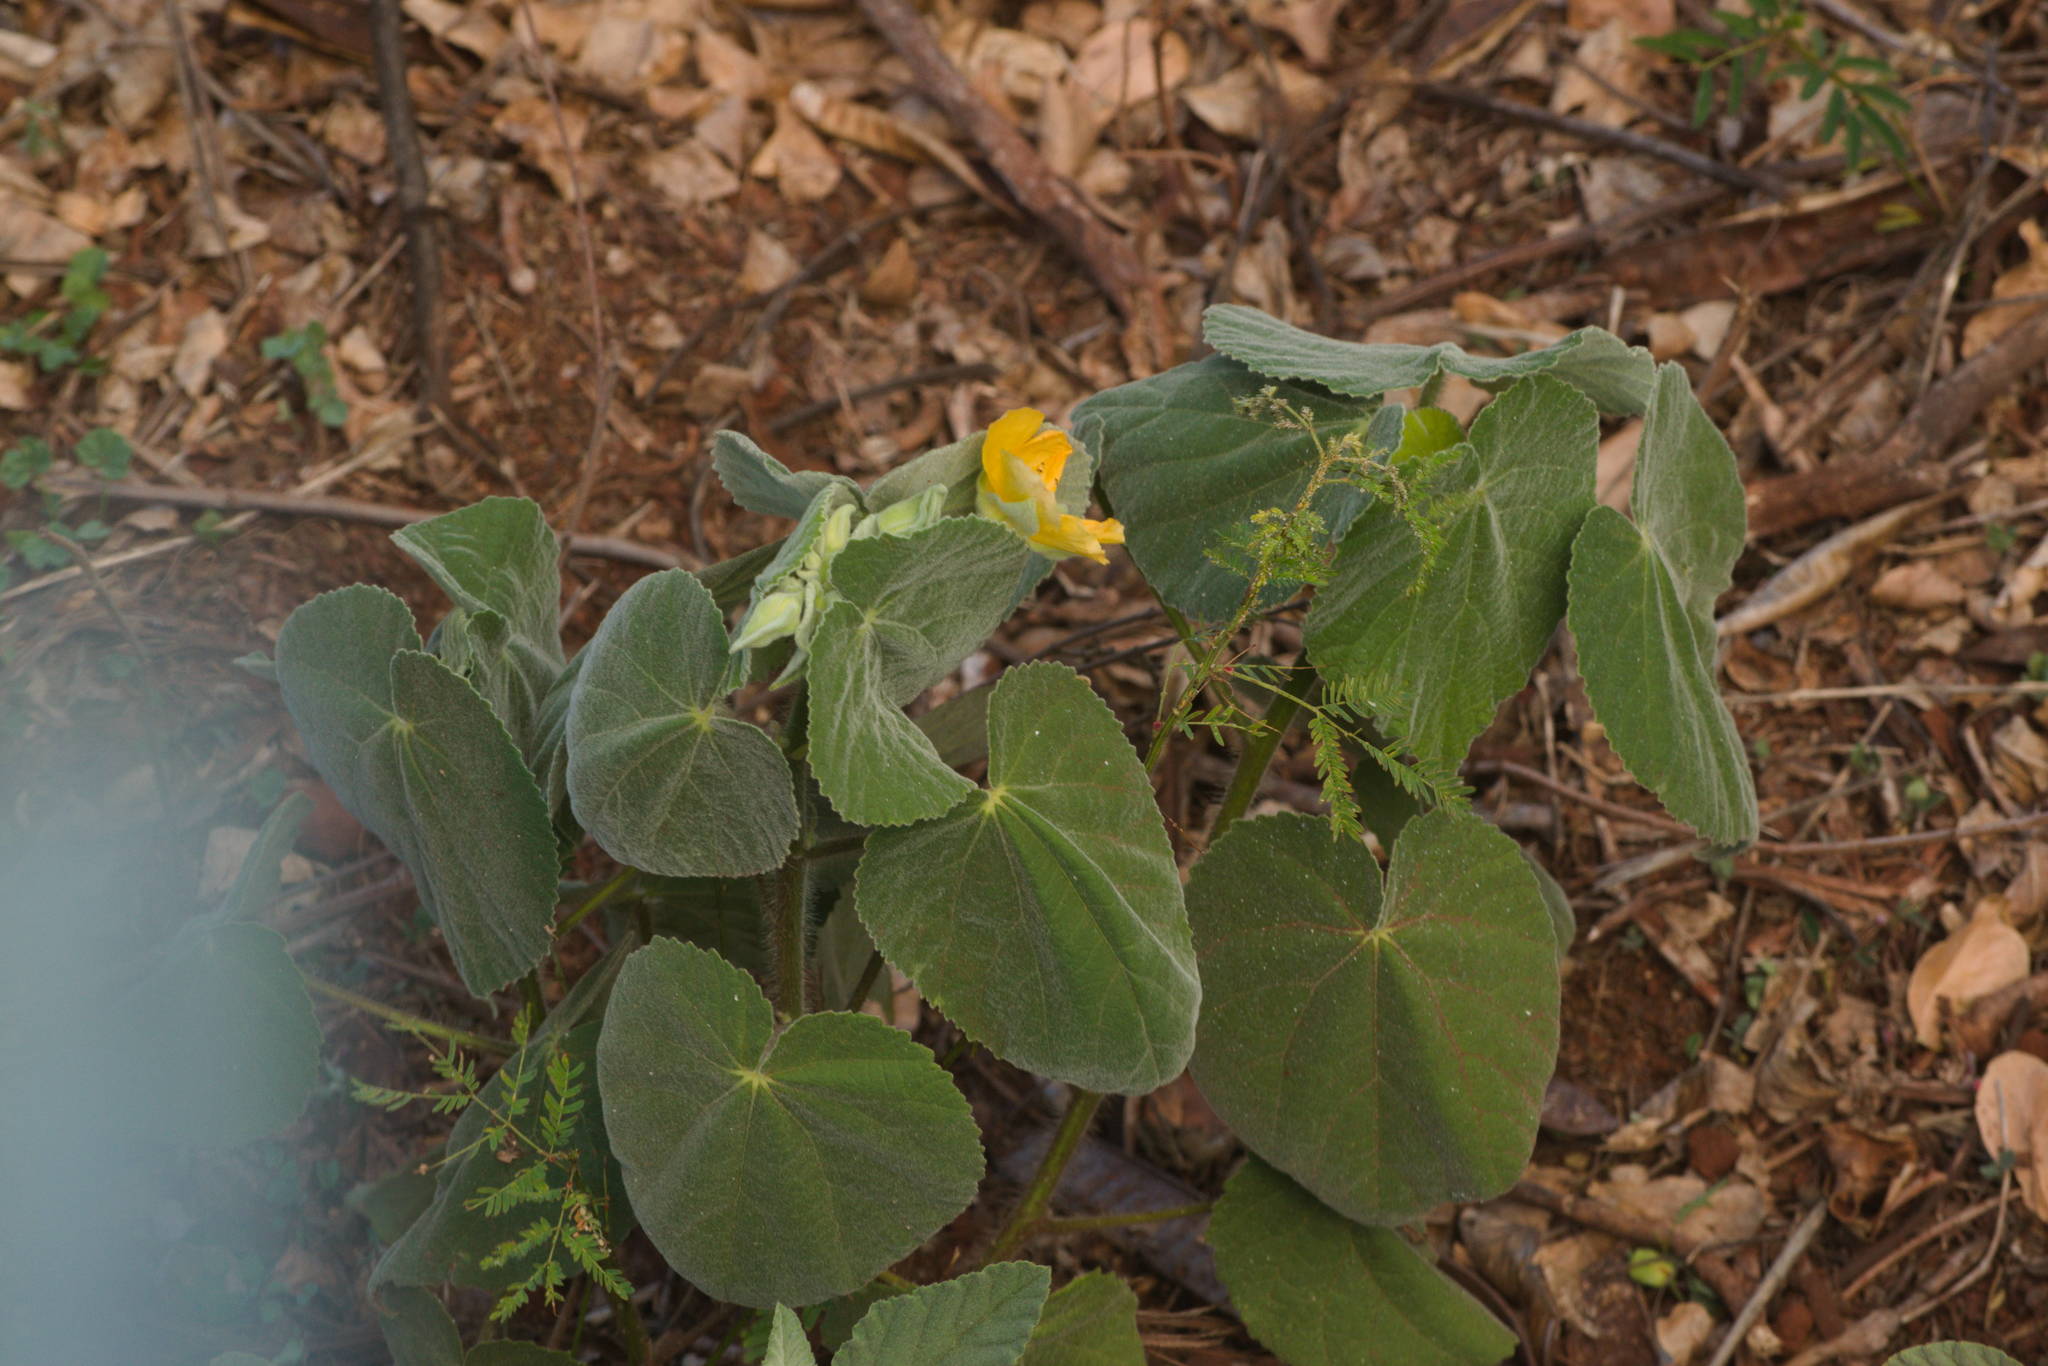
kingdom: Plantae
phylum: Tracheophyta
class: Magnoliopsida
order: Malvales
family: Malvaceae
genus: Abutilon
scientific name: Abutilon grandifolium
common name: Hairy abutilon
